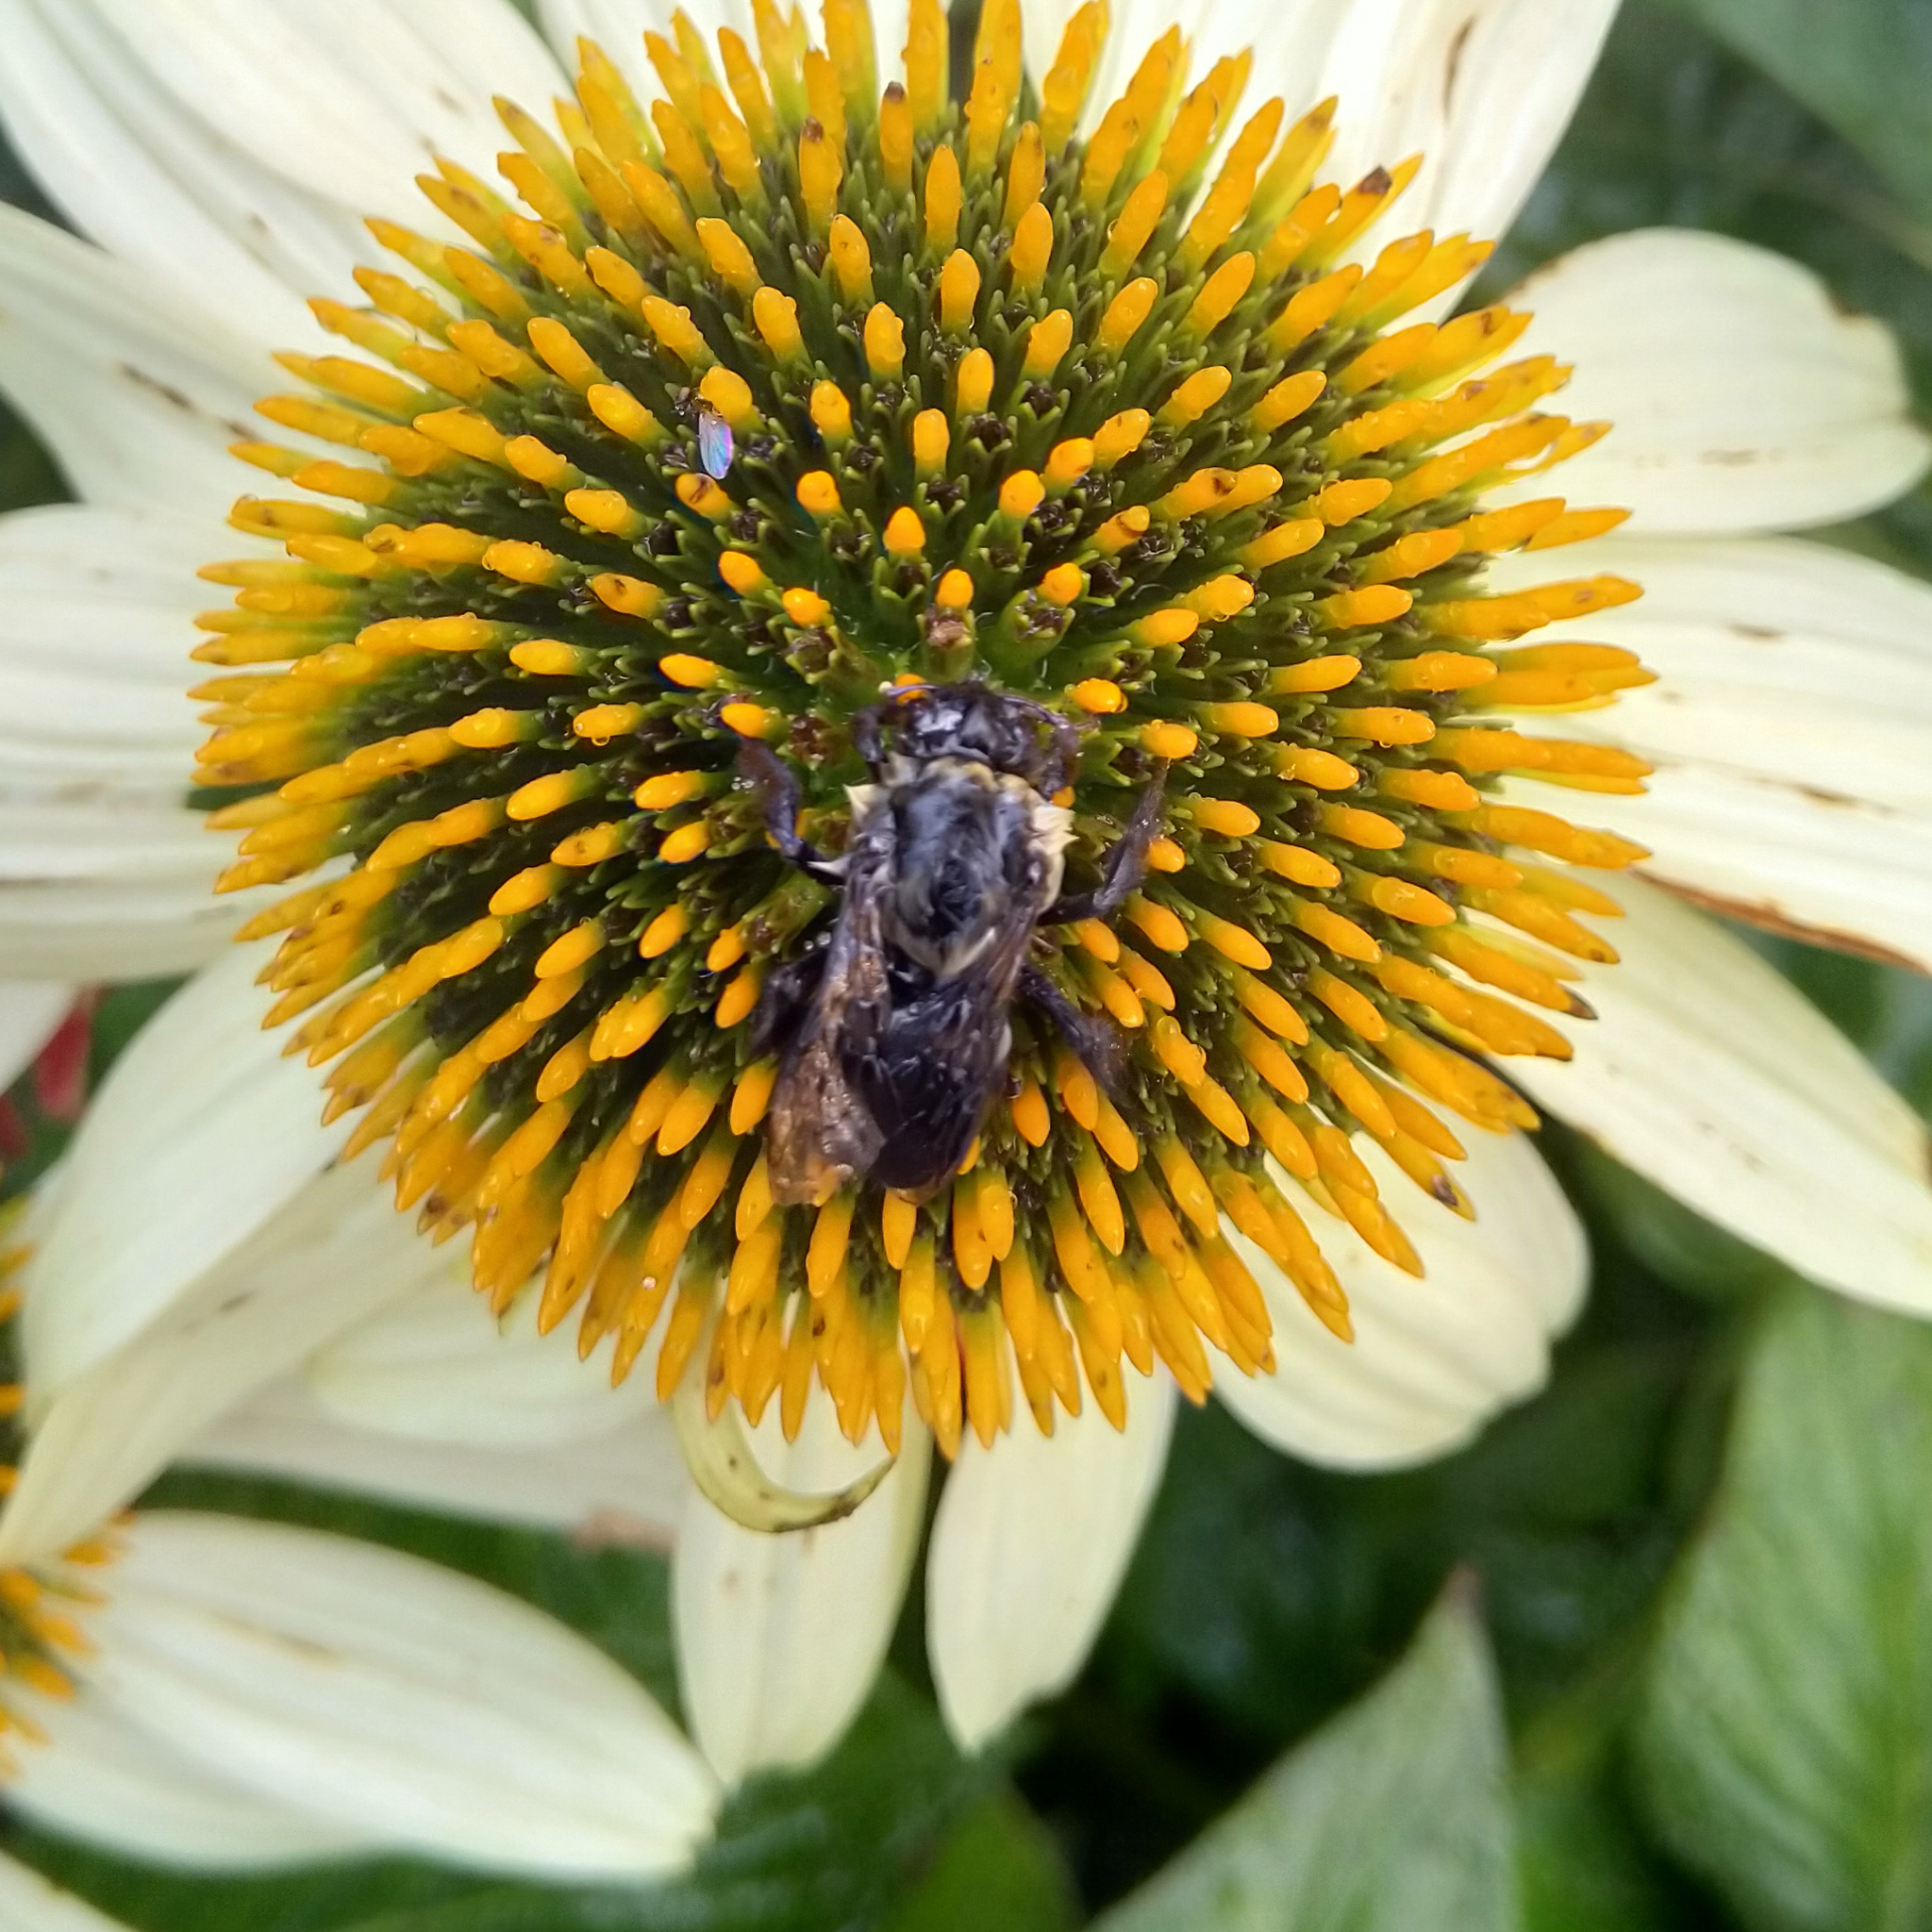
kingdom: Animalia
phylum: Arthropoda
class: Insecta
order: Hymenoptera
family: Apidae
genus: Bombus
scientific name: Bombus impatiens
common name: Common eastern bumble bee
